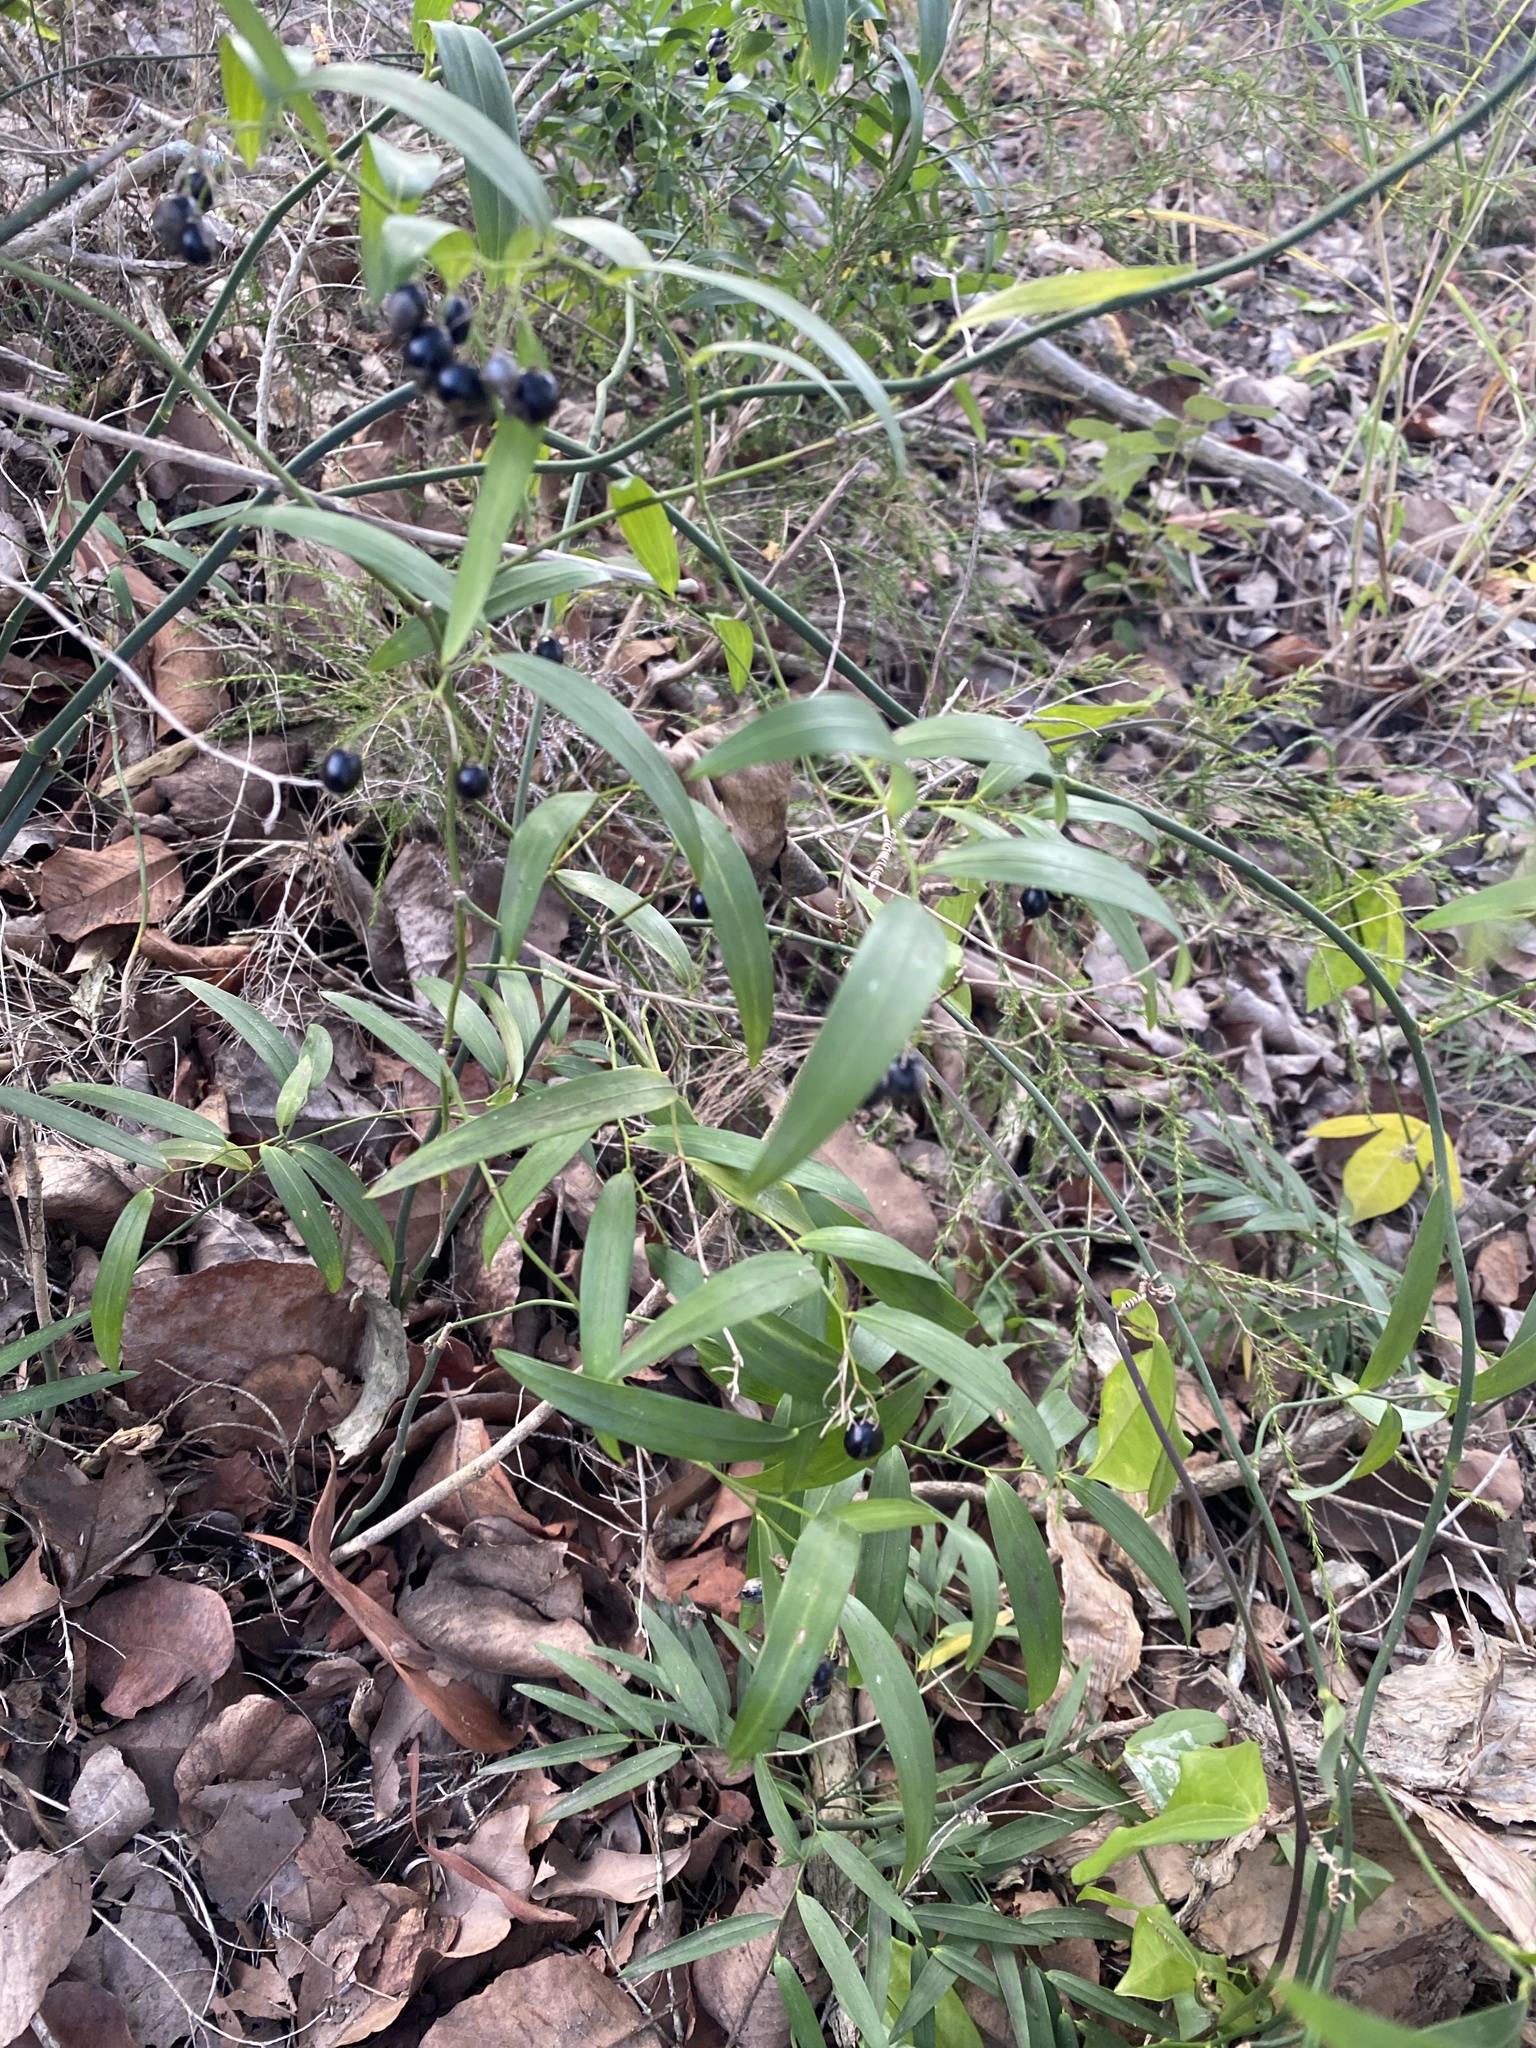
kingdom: Plantae
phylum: Tracheophyta
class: Liliopsida
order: Asparagales
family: Asphodelaceae
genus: Geitonoplesium
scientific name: Geitonoplesium cymosum
